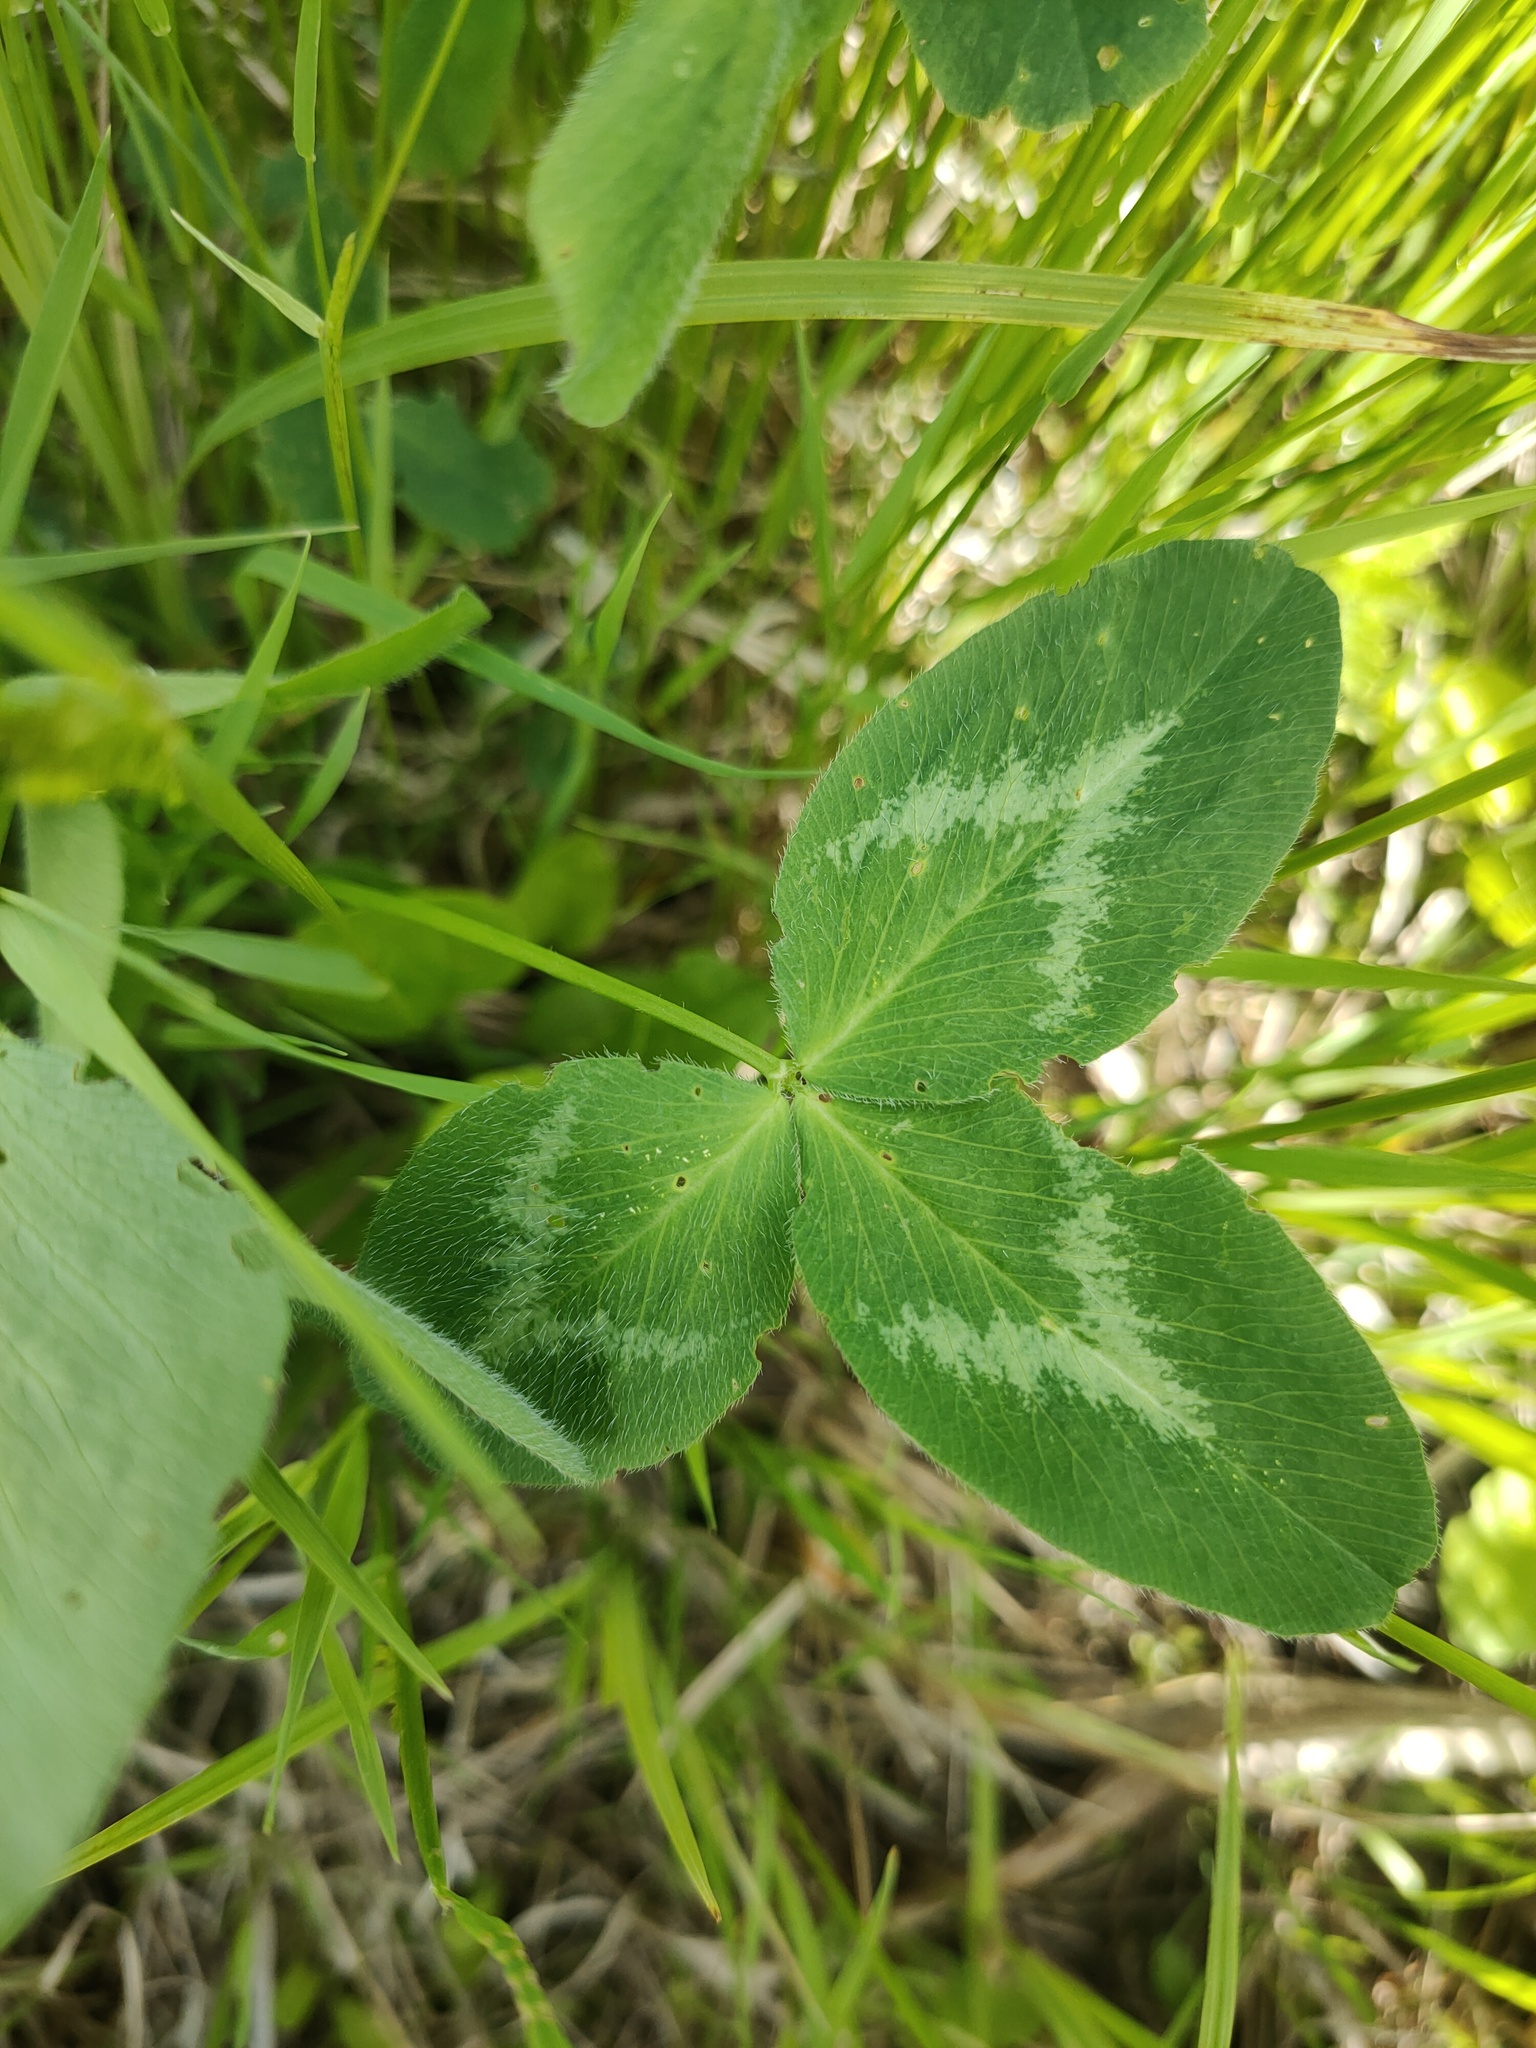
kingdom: Plantae
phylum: Tracheophyta
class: Magnoliopsida
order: Fabales
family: Fabaceae
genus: Trifolium
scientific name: Trifolium pratense
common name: Red clover
